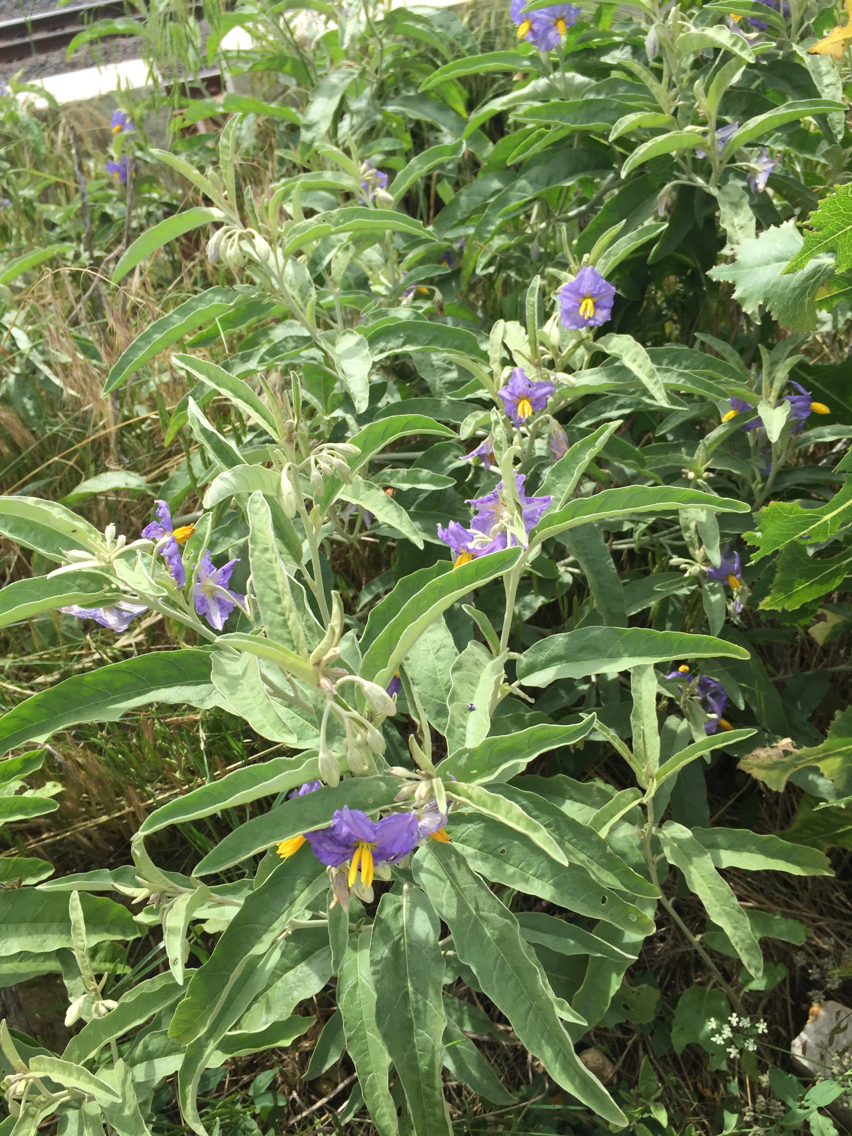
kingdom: Plantae
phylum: Tracheophyta
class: Magnoliopsida
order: Solanales
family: Solanaceae
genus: Solanum
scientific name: Solanum elaeagnifolium
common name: Silverleaf nightshade
